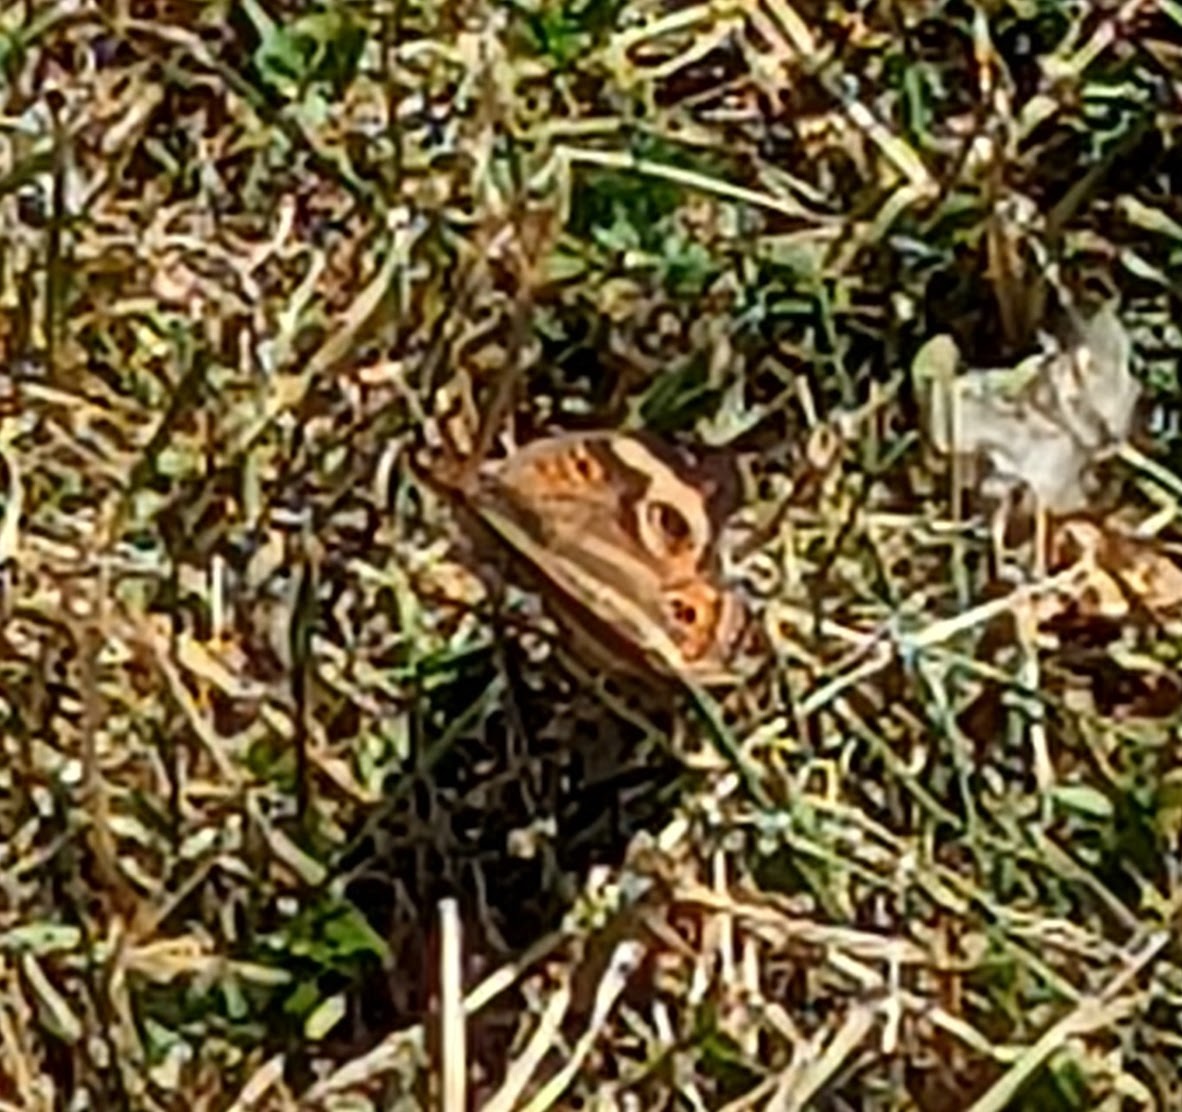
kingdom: Animalia
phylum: Arthropoda
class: Insecta
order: Lepidoptera
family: Nymphalidae
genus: Junonia
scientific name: Junonia coenia
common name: Common buckeye
